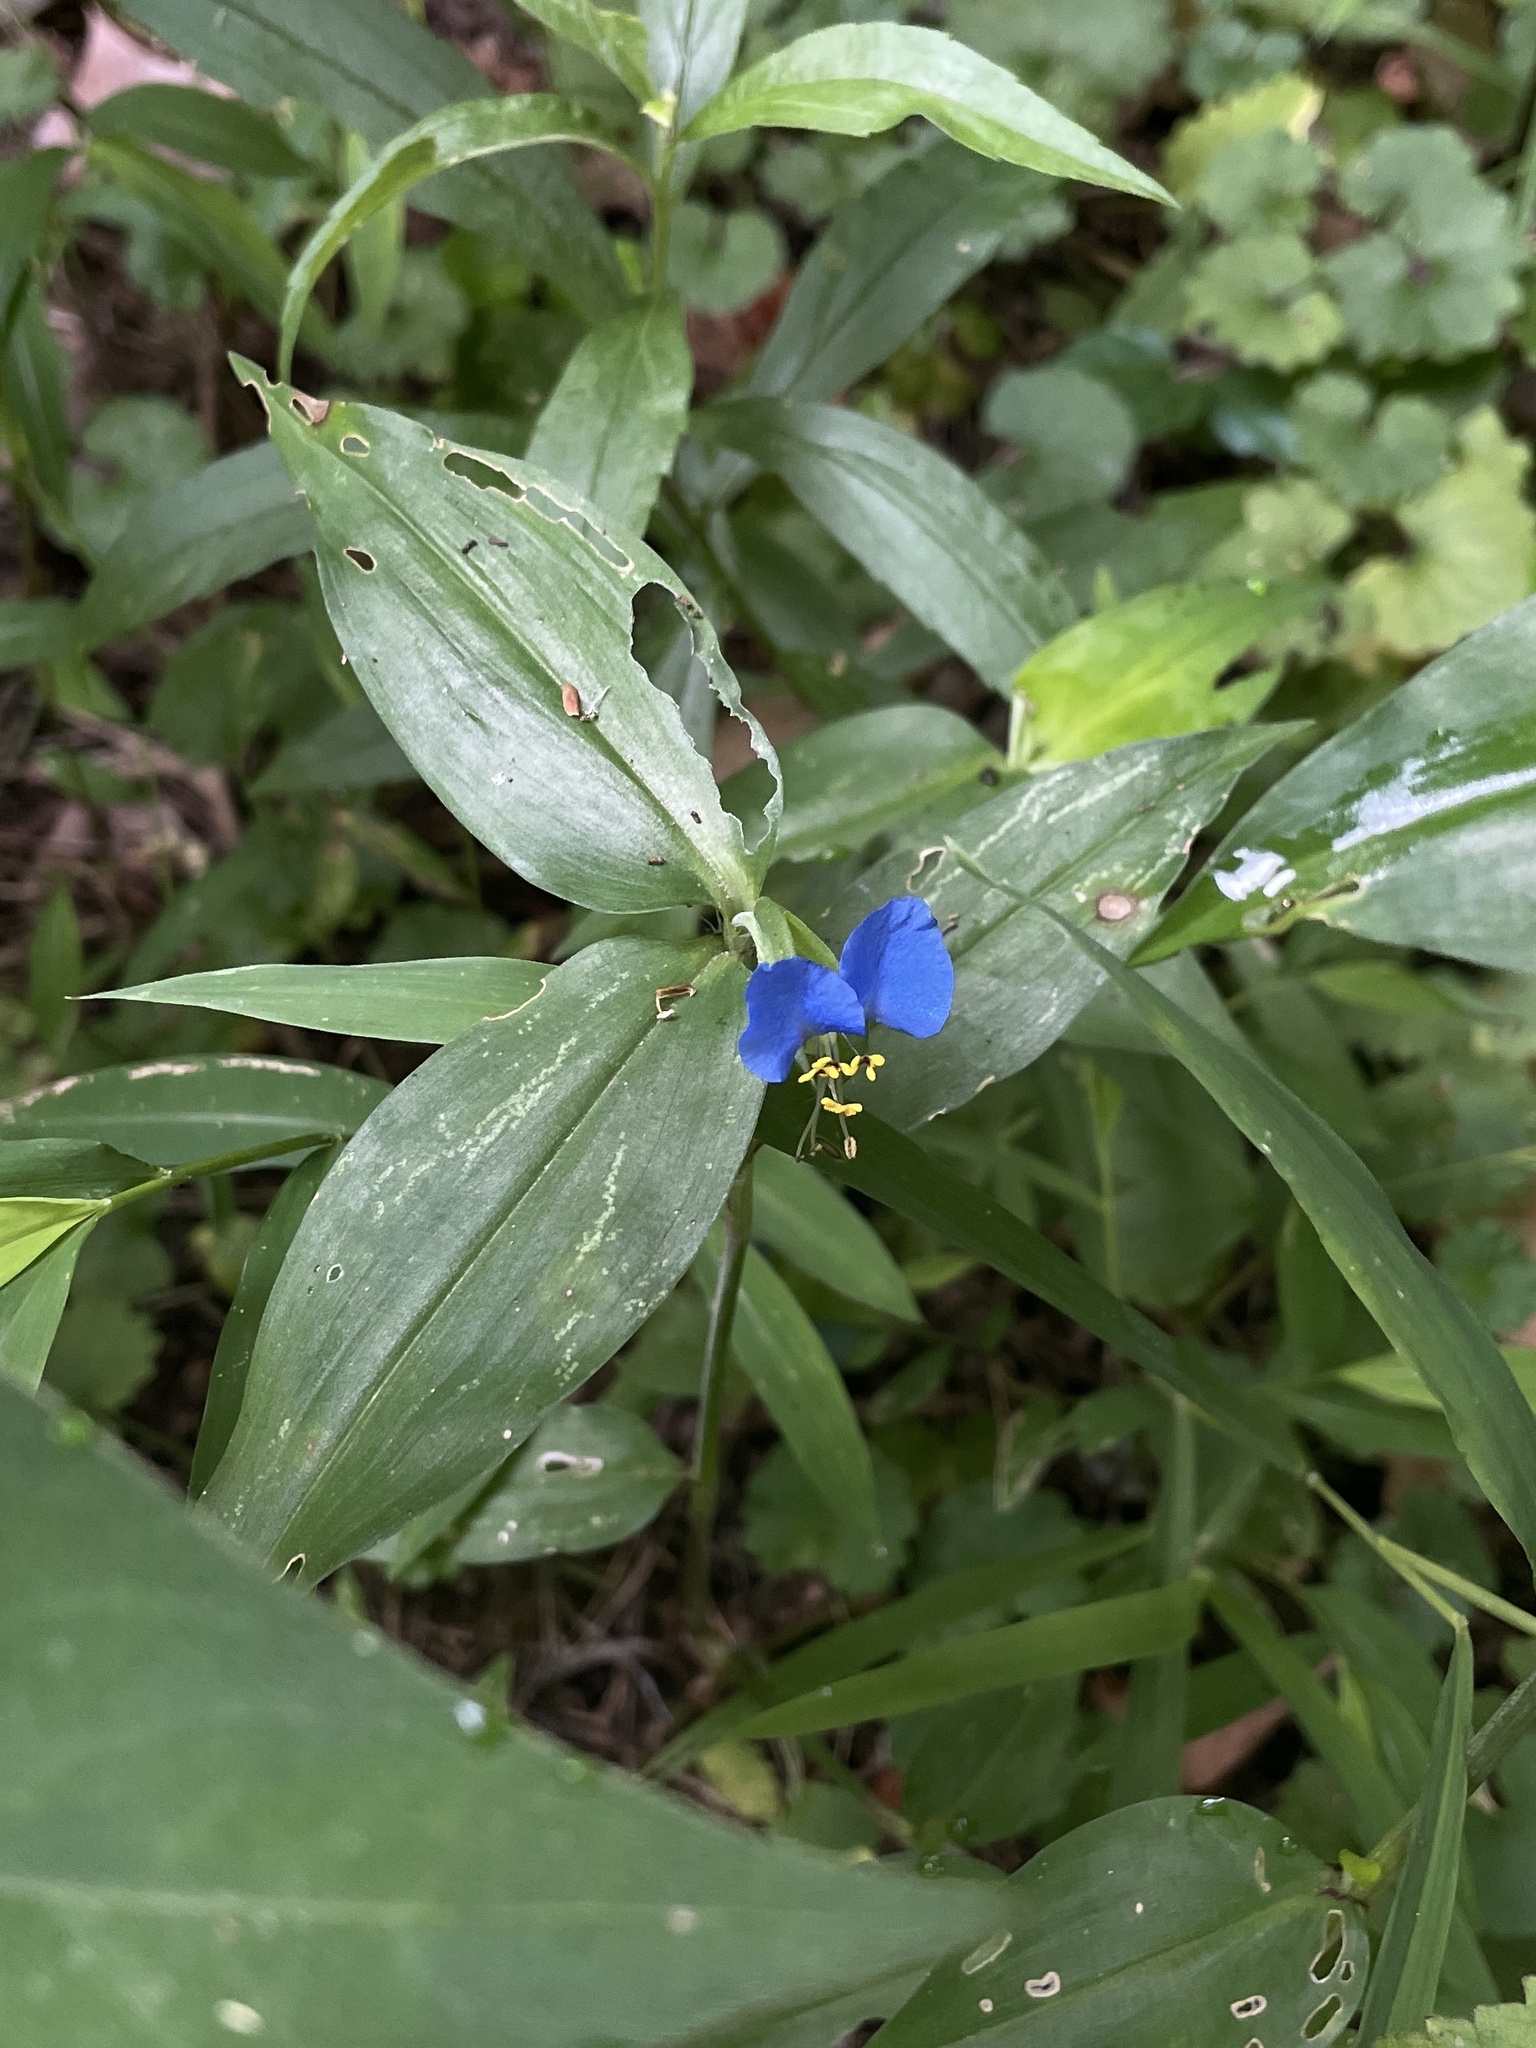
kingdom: Plantae
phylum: Tracheophyta
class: Liliopsida
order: Commelinales
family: Commelinaceae
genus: Commelina
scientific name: Commelina communis
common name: Asiatic dayflower
